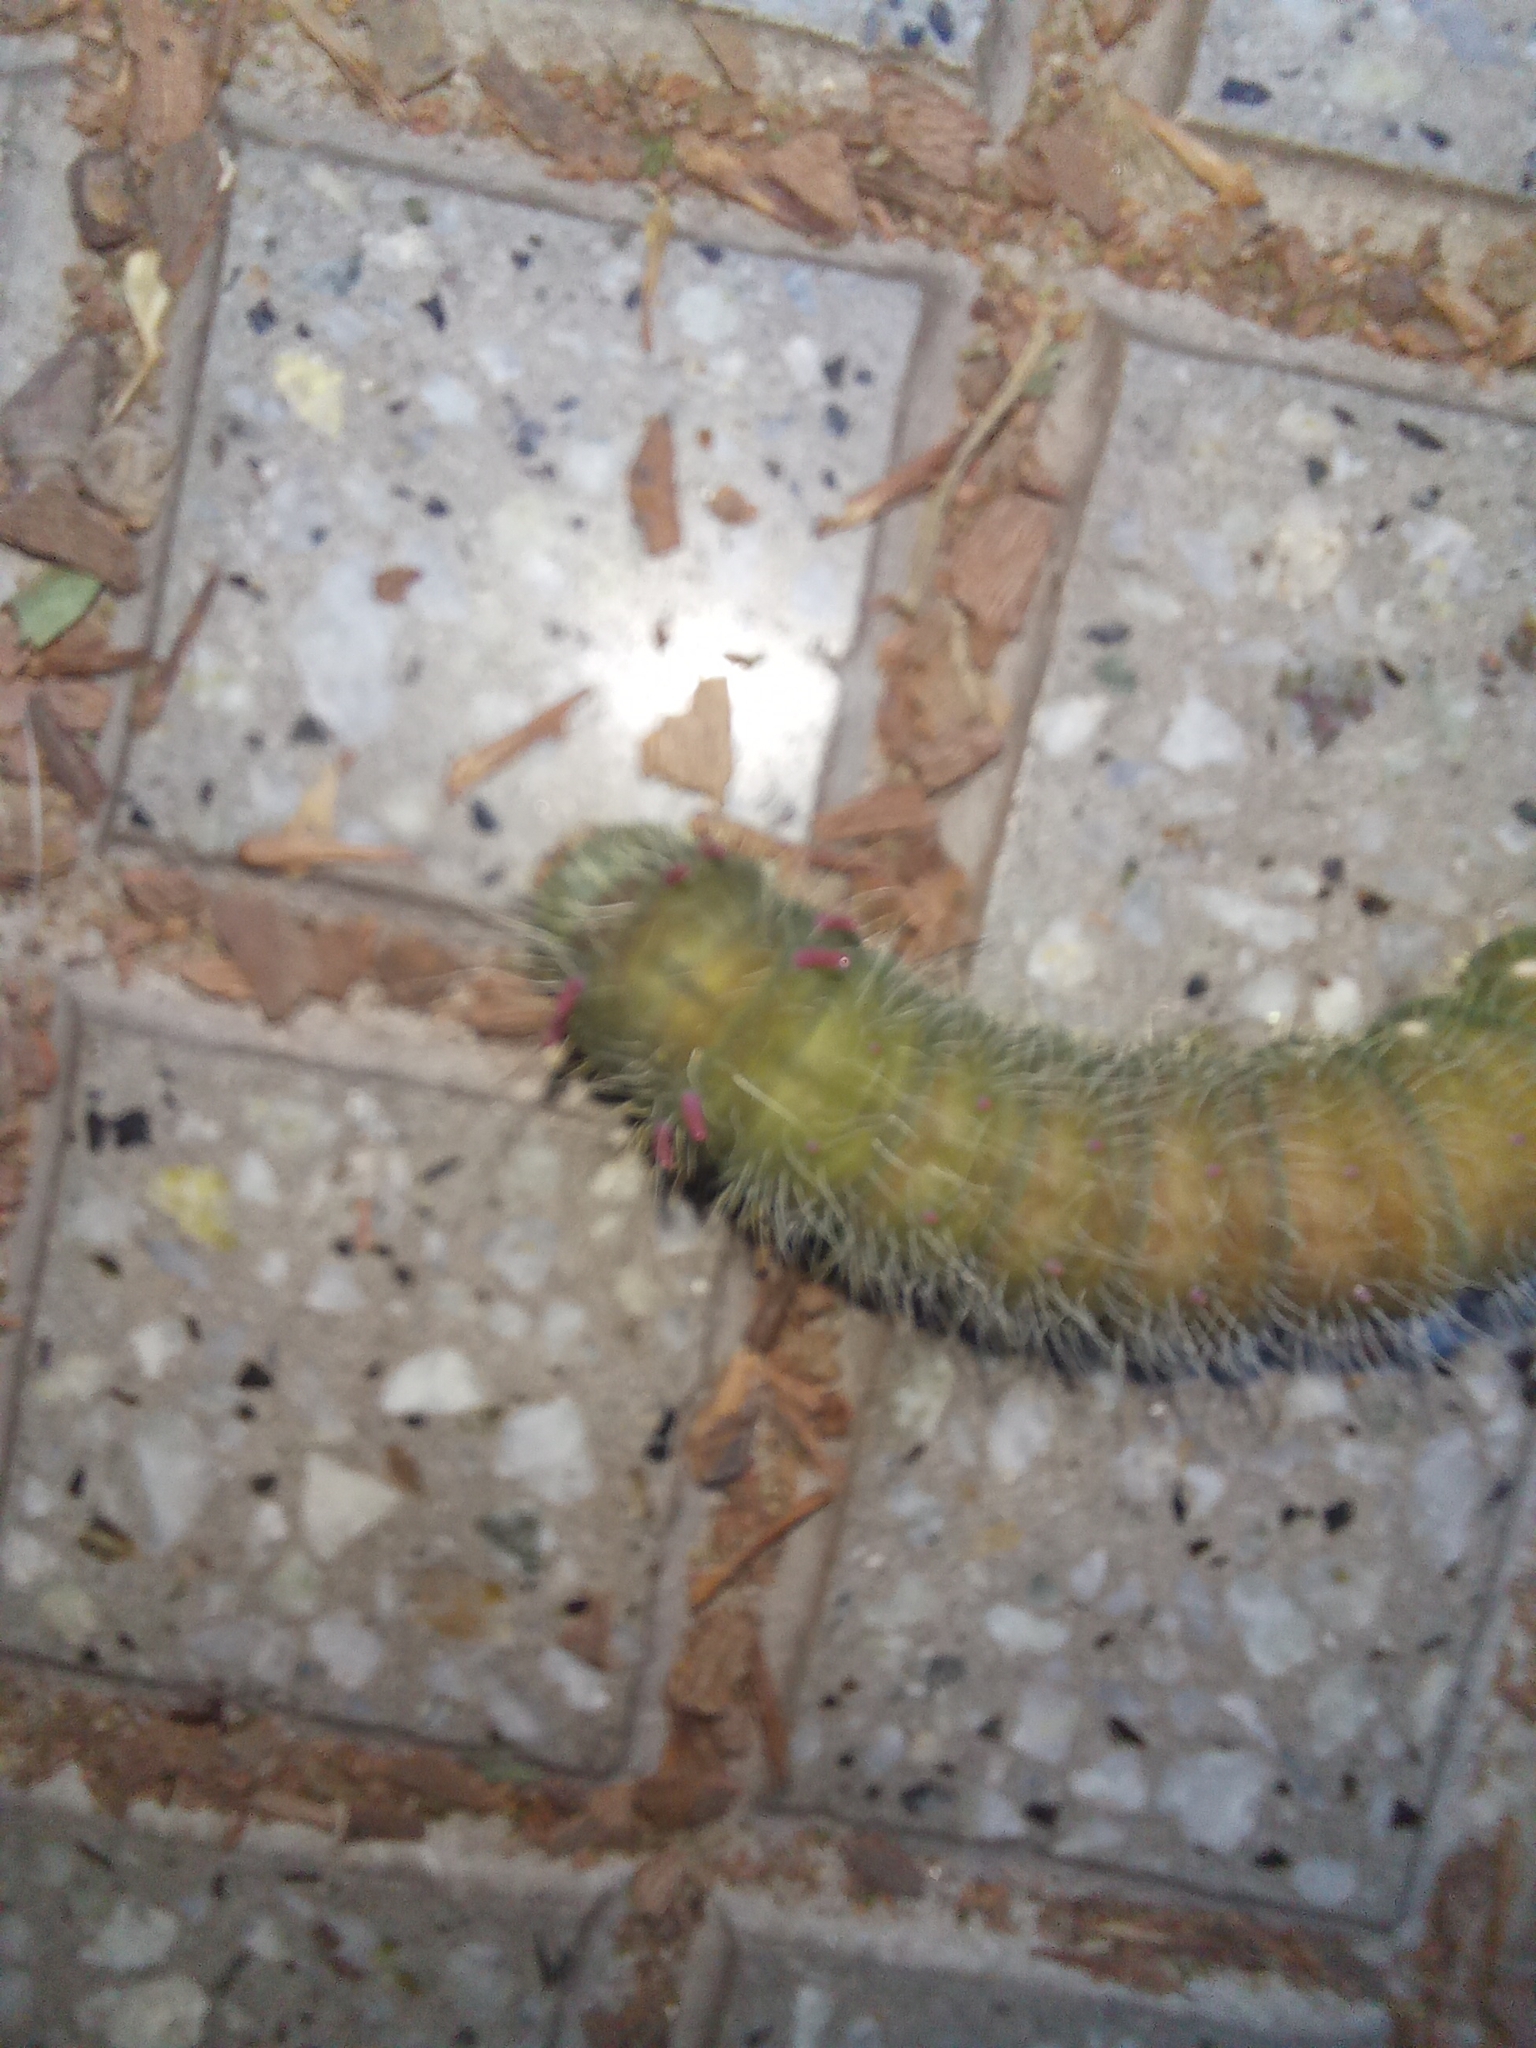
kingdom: Animalia
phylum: Arthropoda
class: Insecta
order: Lepidoptera
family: Saturniidae
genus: Eacles
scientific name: Eacles imperialis
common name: Imperial moth
